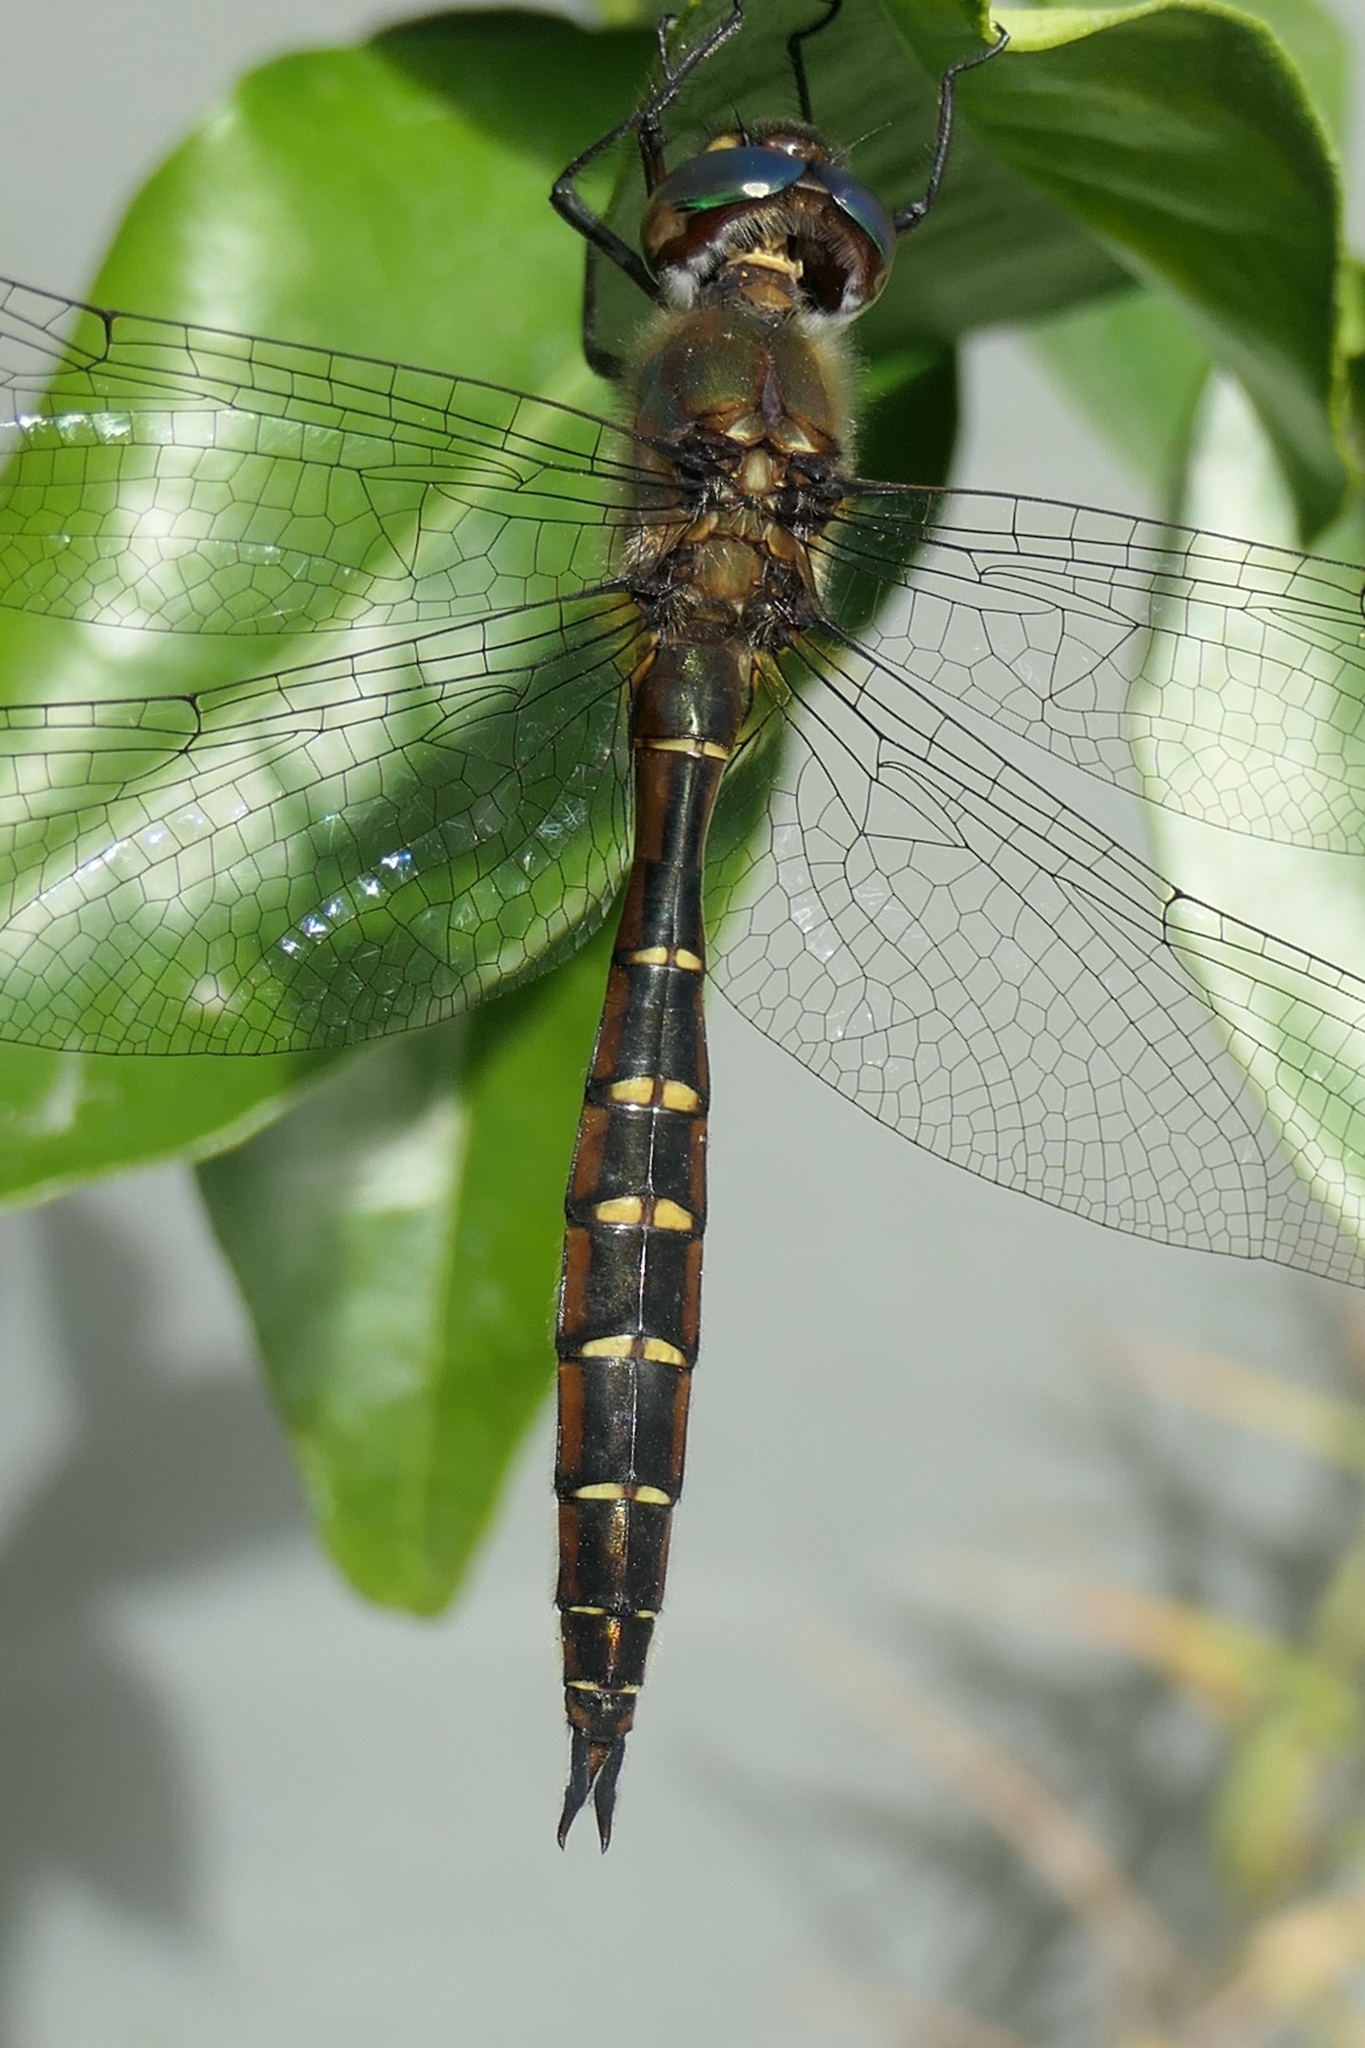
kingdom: Animalia
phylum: Arthropoda
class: Insecta
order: Odonata
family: Corduliidae
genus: Procordulia
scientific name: Procordulia smithii
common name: Ranger dragonfly
